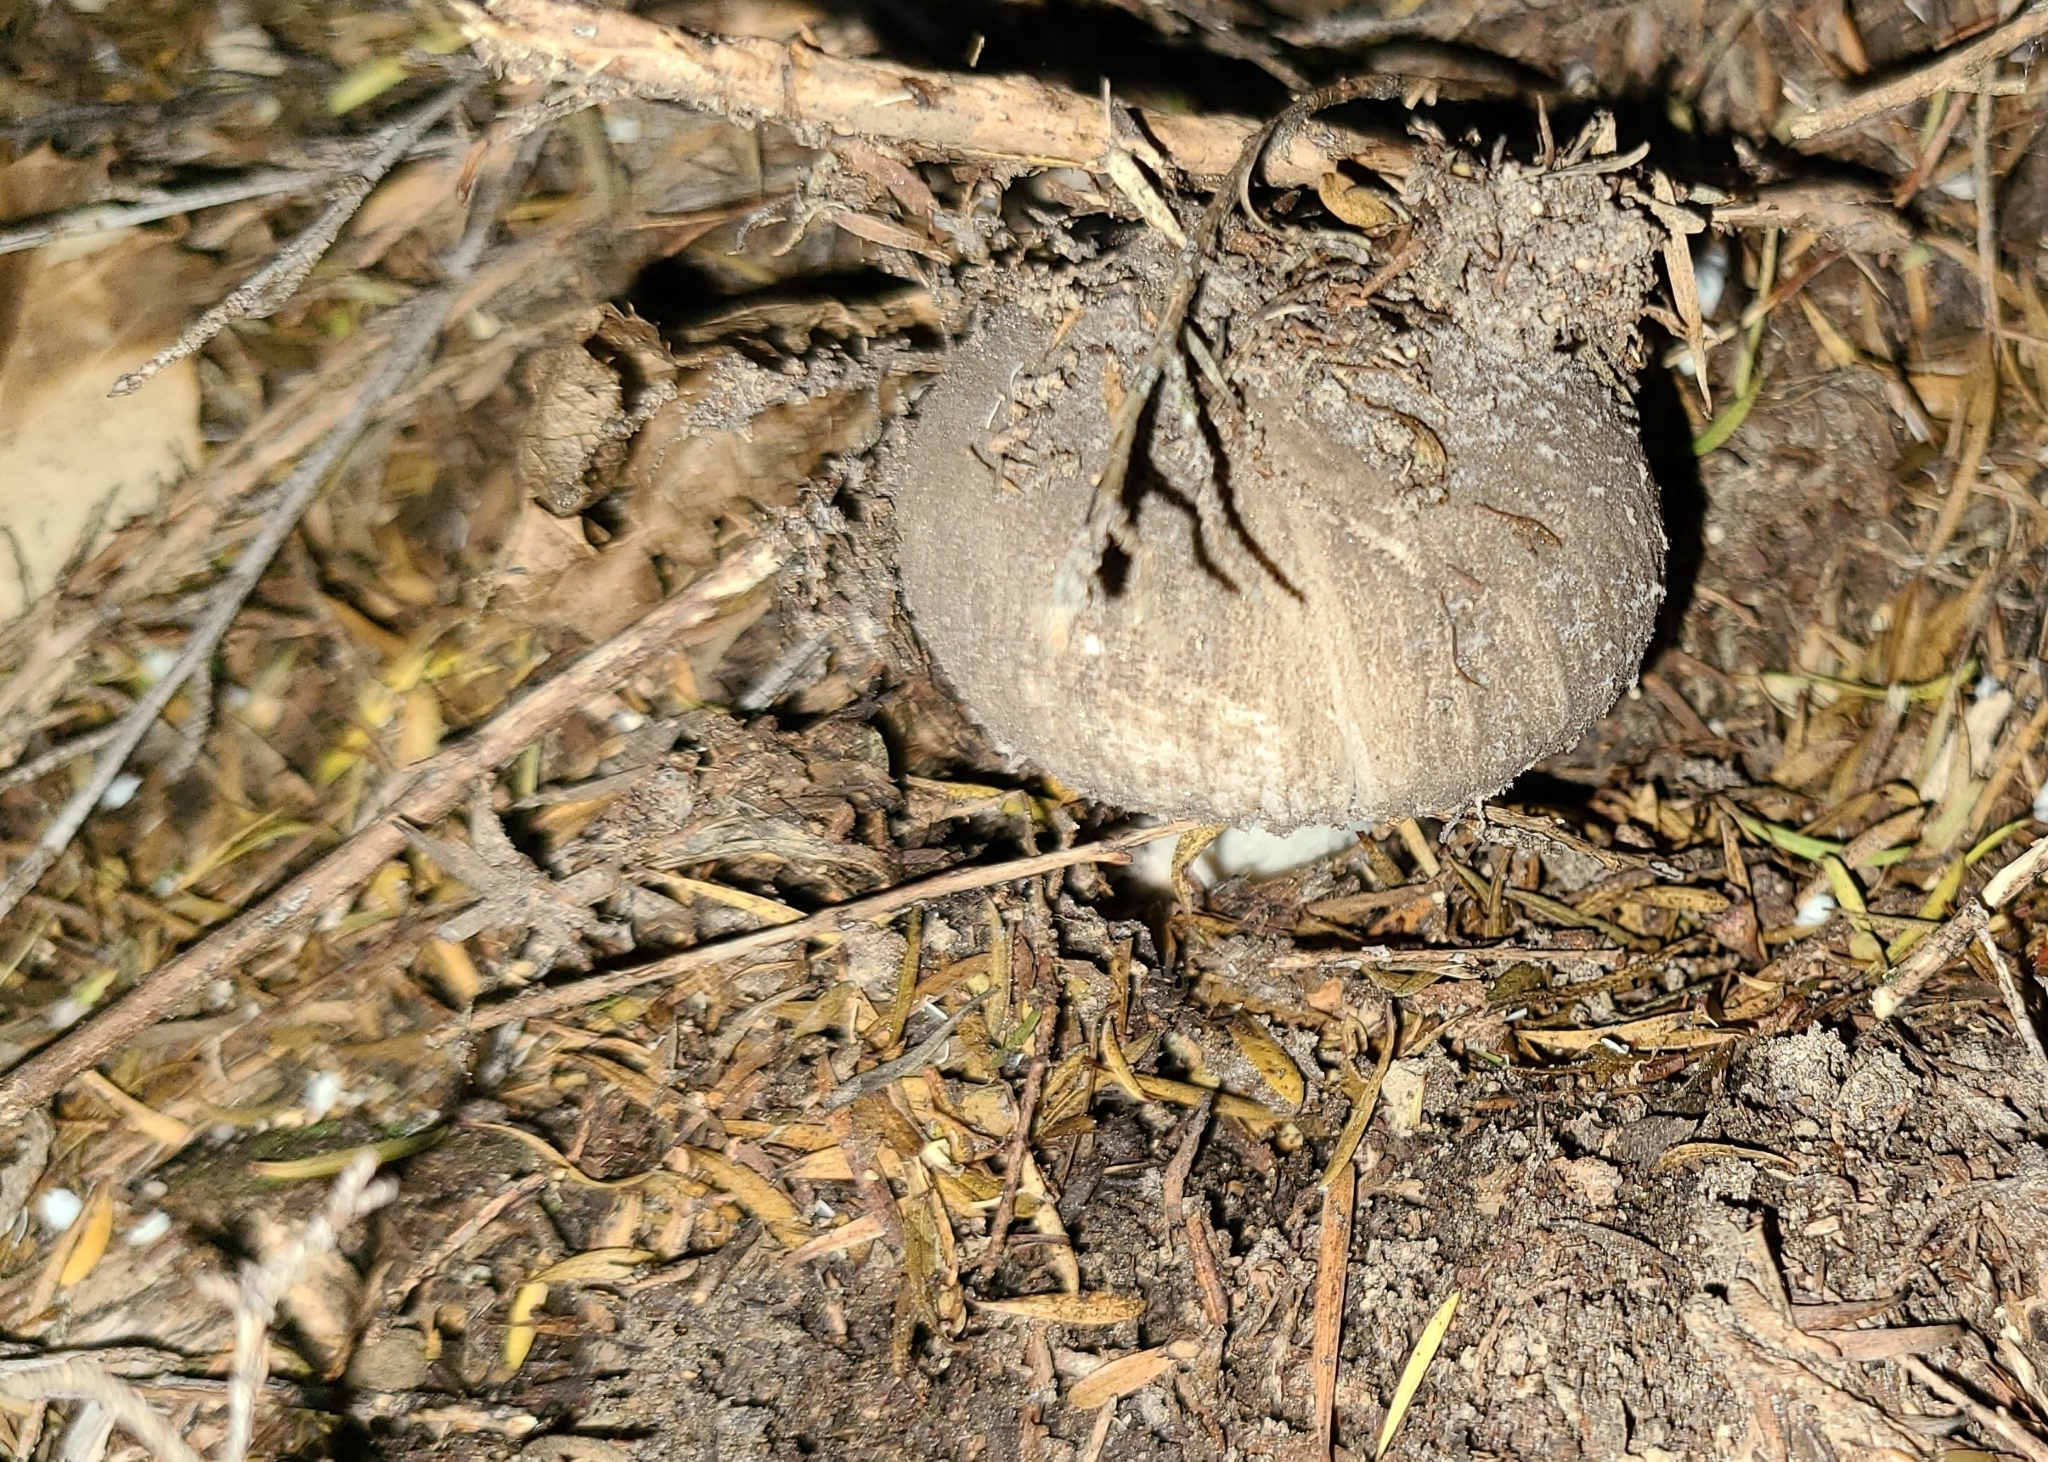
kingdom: Fungi
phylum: Basidiomycota
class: Agaricomycetes
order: Agaricales
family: Amanitaceae
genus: Amanita
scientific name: Amanita nehuta
